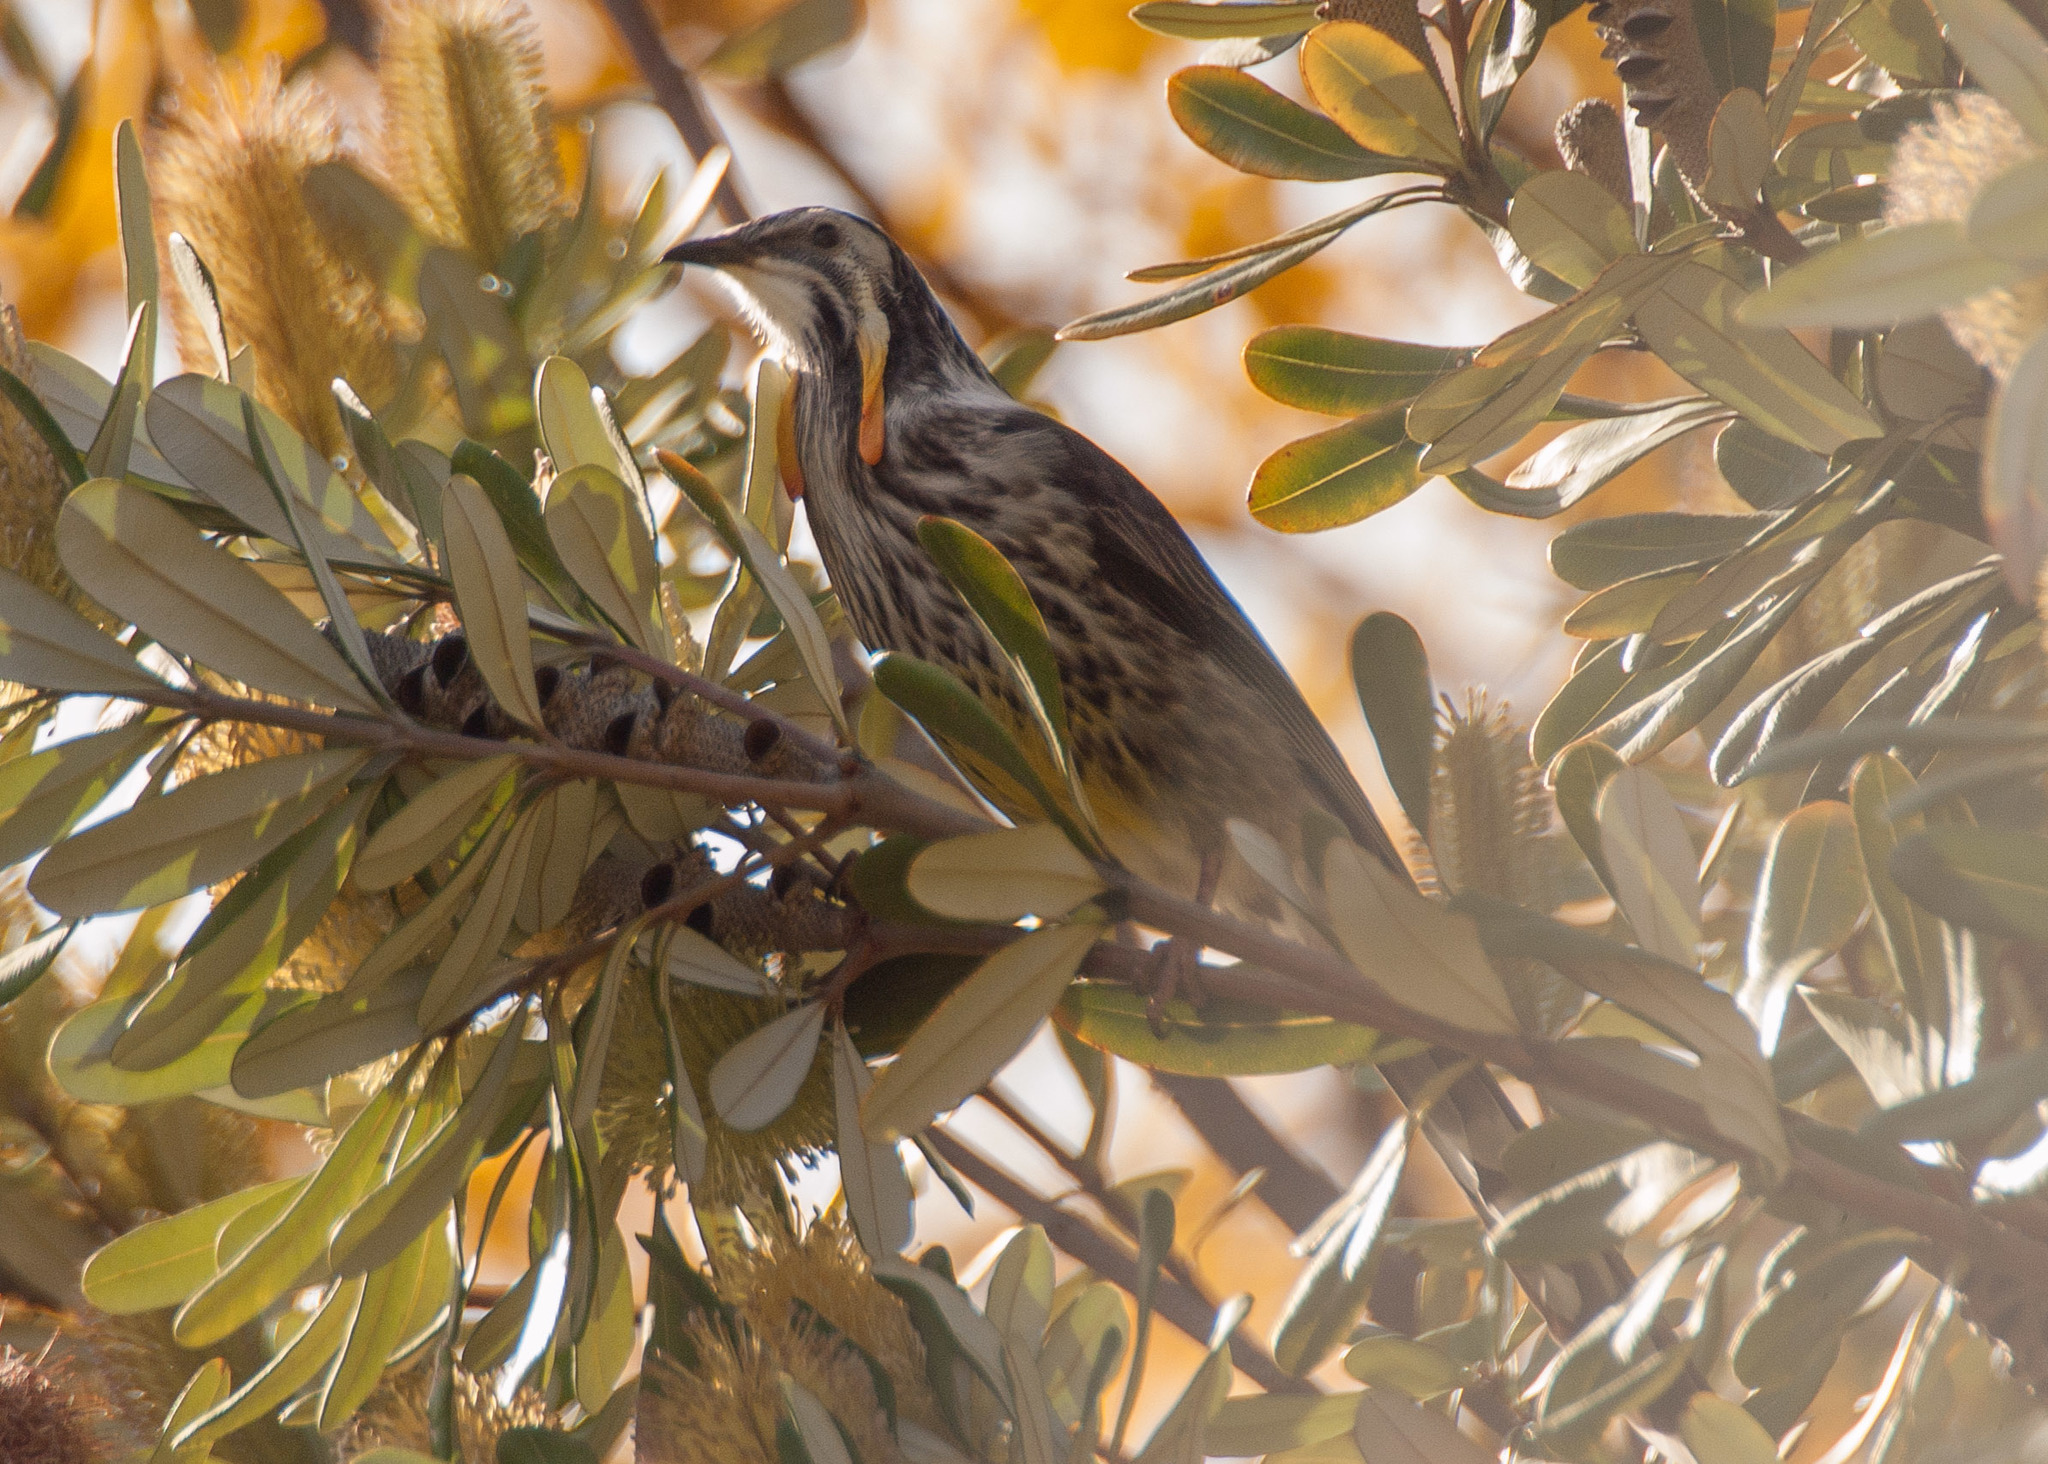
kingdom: Animalia
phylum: Chordata
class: Aves
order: Passeriformes
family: Meliphagidae
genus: Anthochaera
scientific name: Anthochaera paradoxa
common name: Yellow wattlebird
